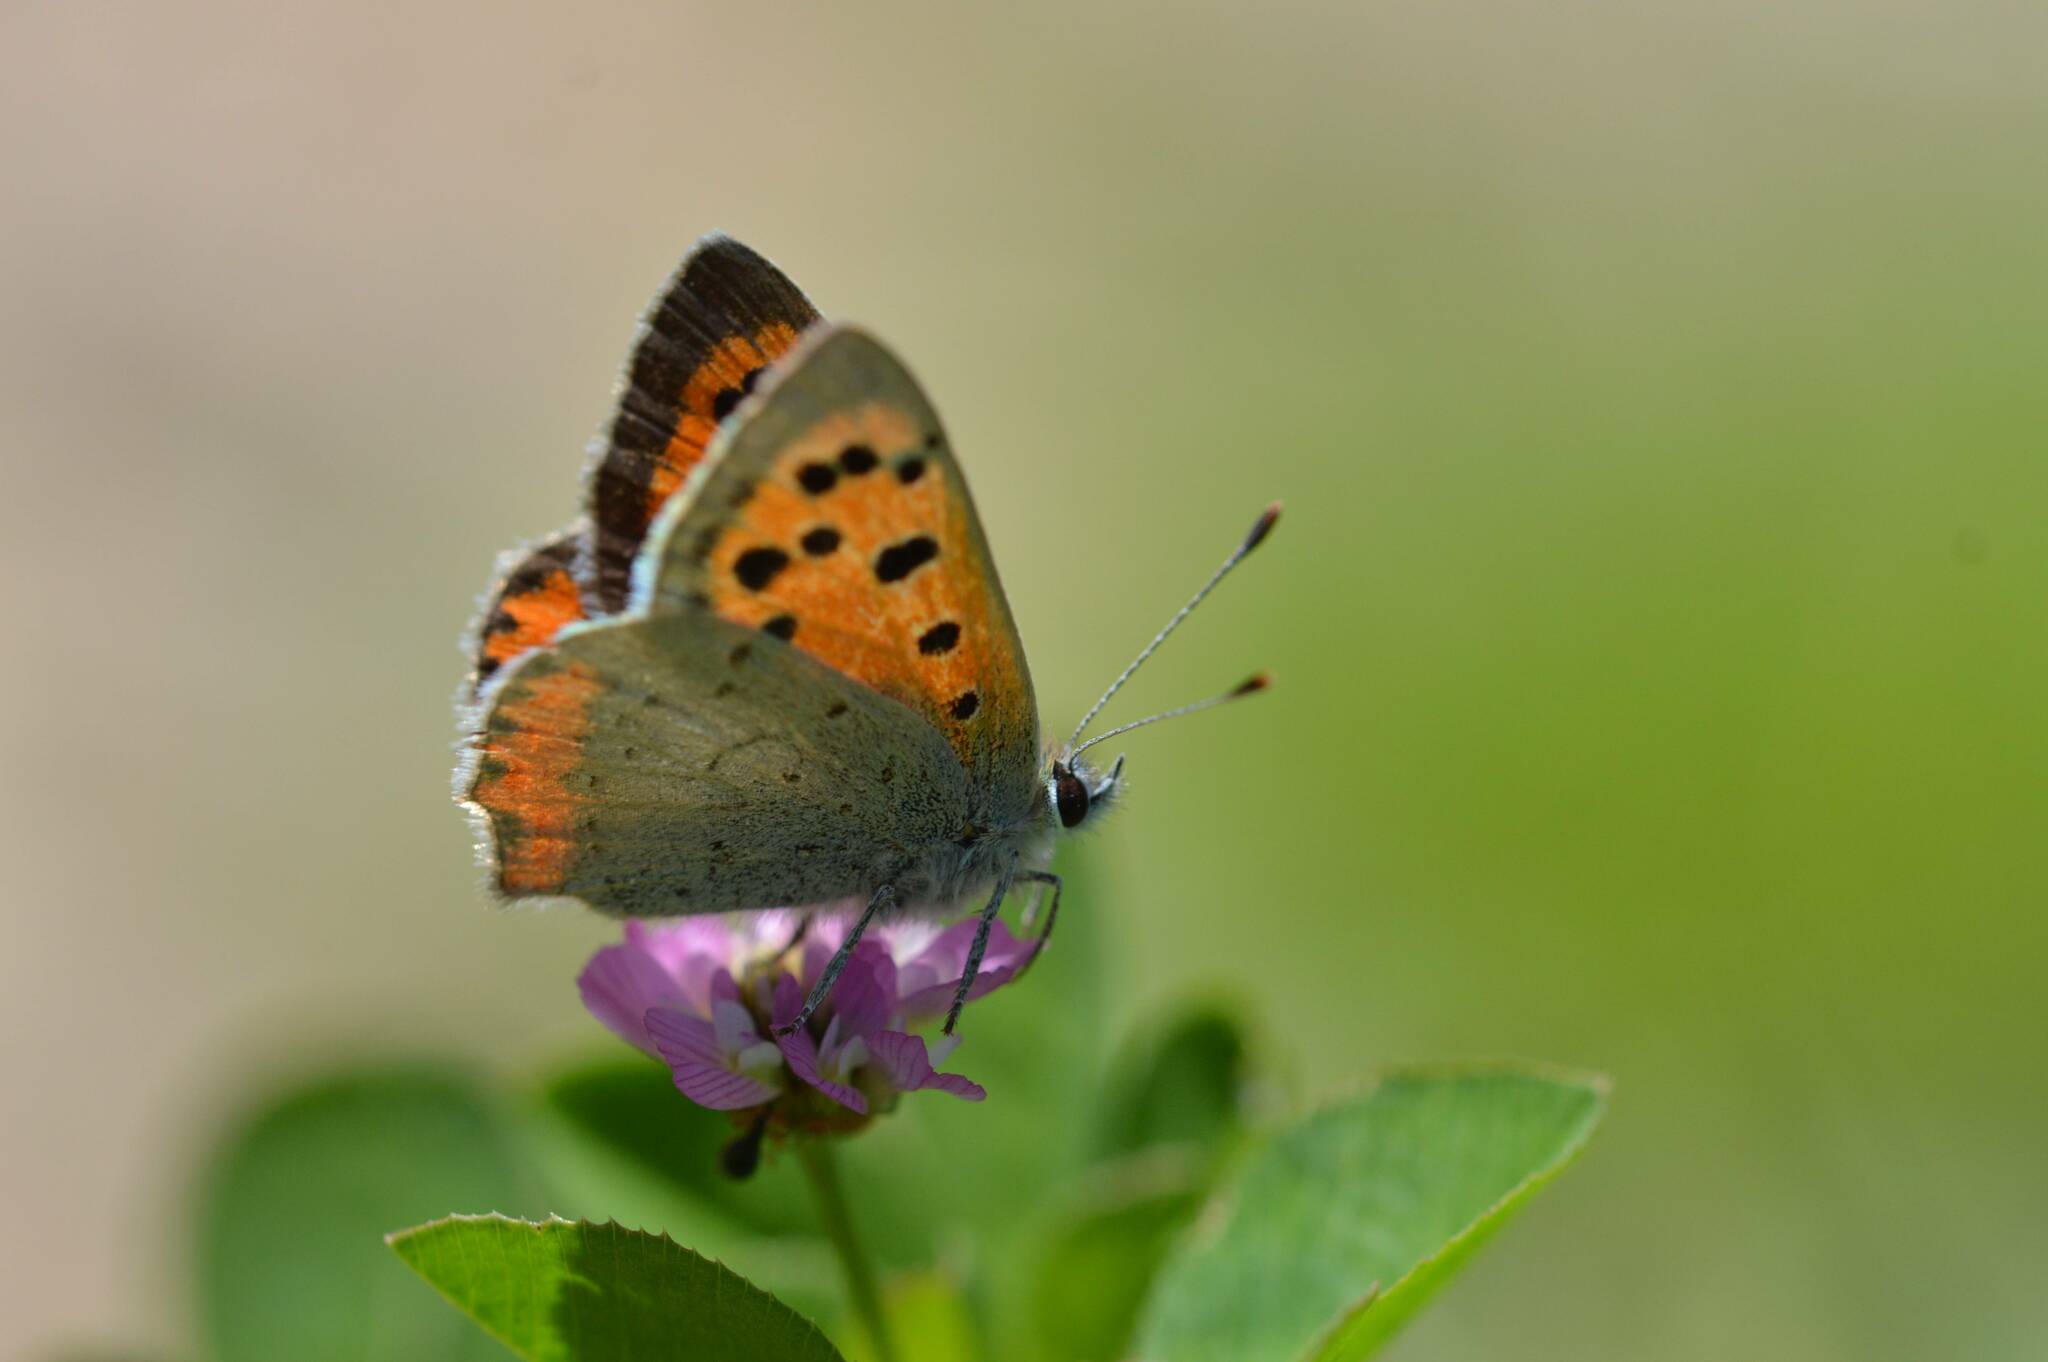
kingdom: Animalia
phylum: Arthropoda
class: Insecta
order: Lepidoptera
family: Lycaenidae
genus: Lycaena
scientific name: Lycaena phlaeas
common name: Small copper
